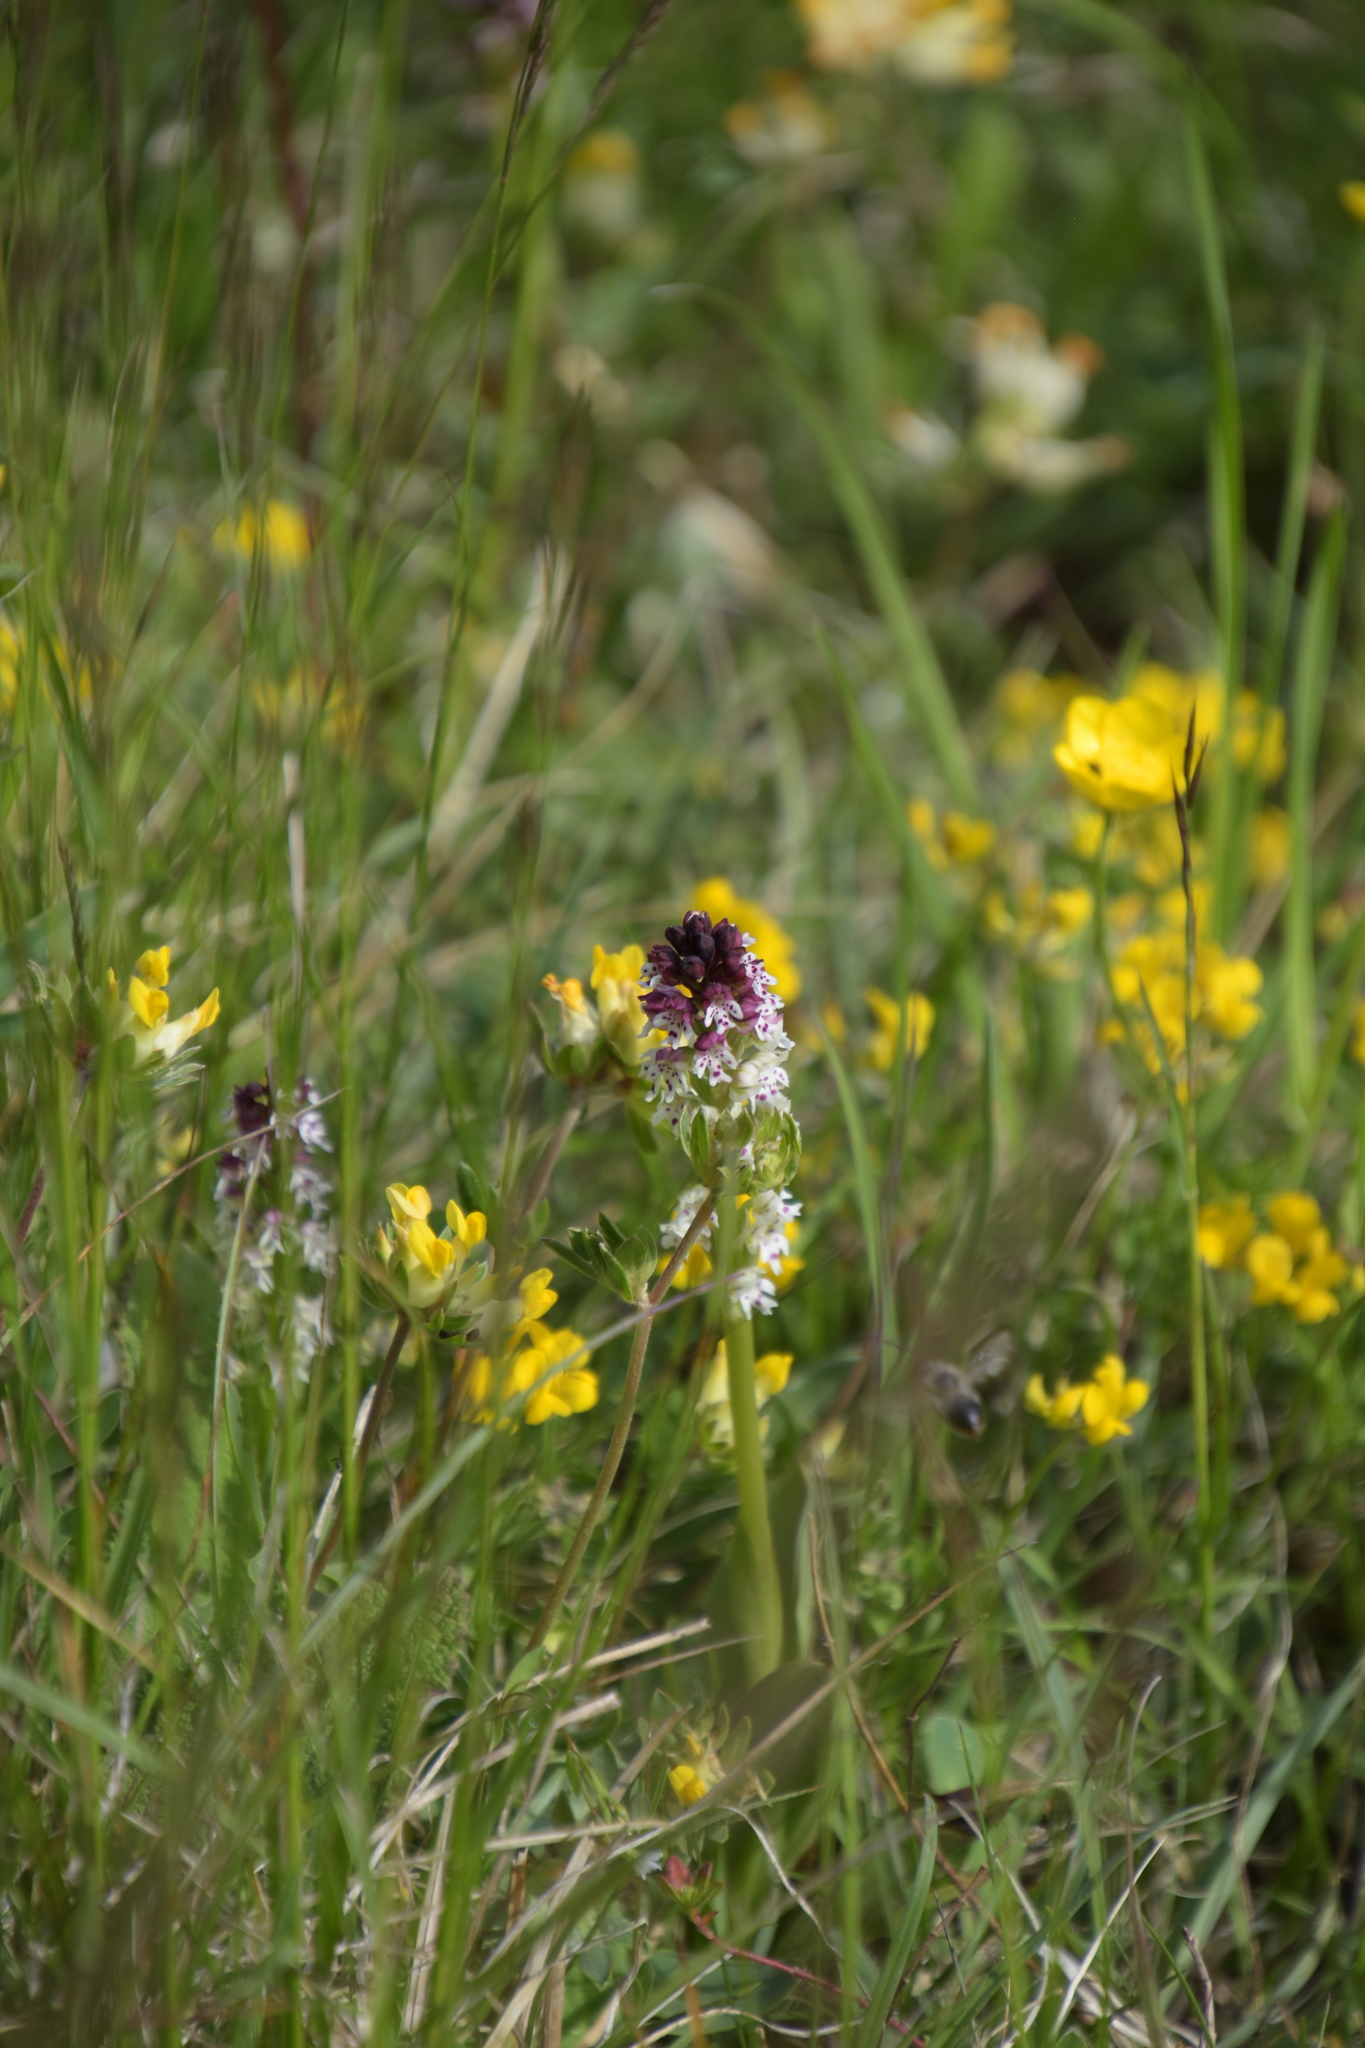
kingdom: Plantae
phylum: Tracheophyta
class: Liliopsida
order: Asparagales
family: Orchidaceae
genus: Neotinea
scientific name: Neotinea ustulata
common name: Burnt orchid
